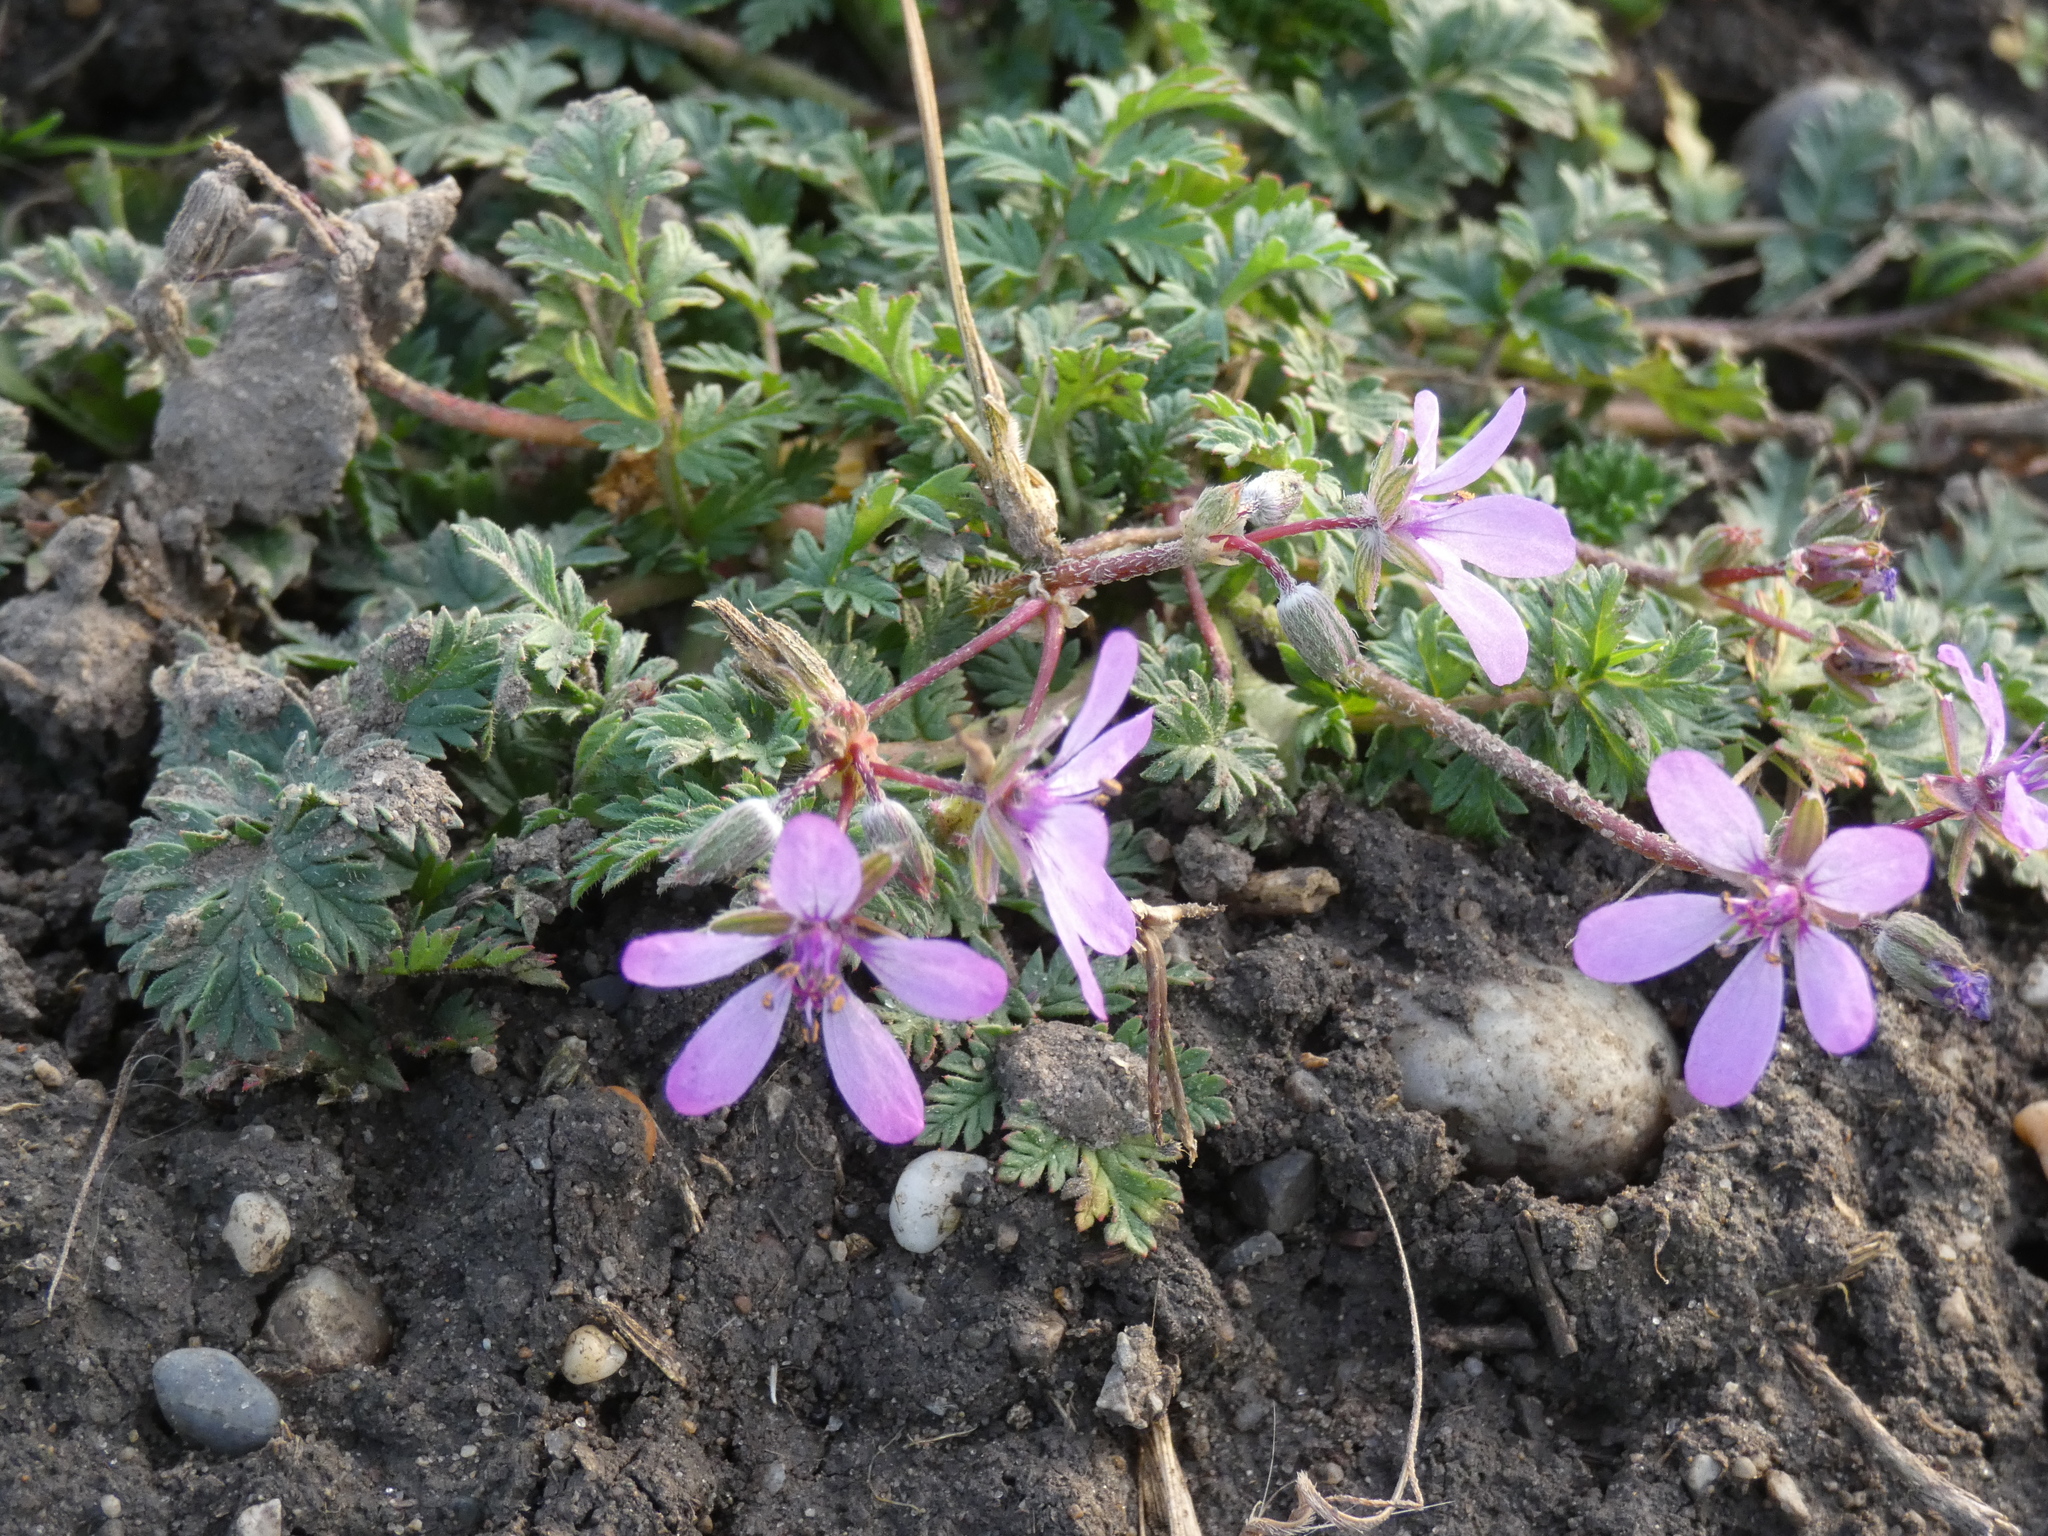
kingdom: Plantae
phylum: Tracheophyta
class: Magnoliopsida
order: Geraniales
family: Geraniaceae
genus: Erodium
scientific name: Erodium cicutarium
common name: Common stork's-bill
